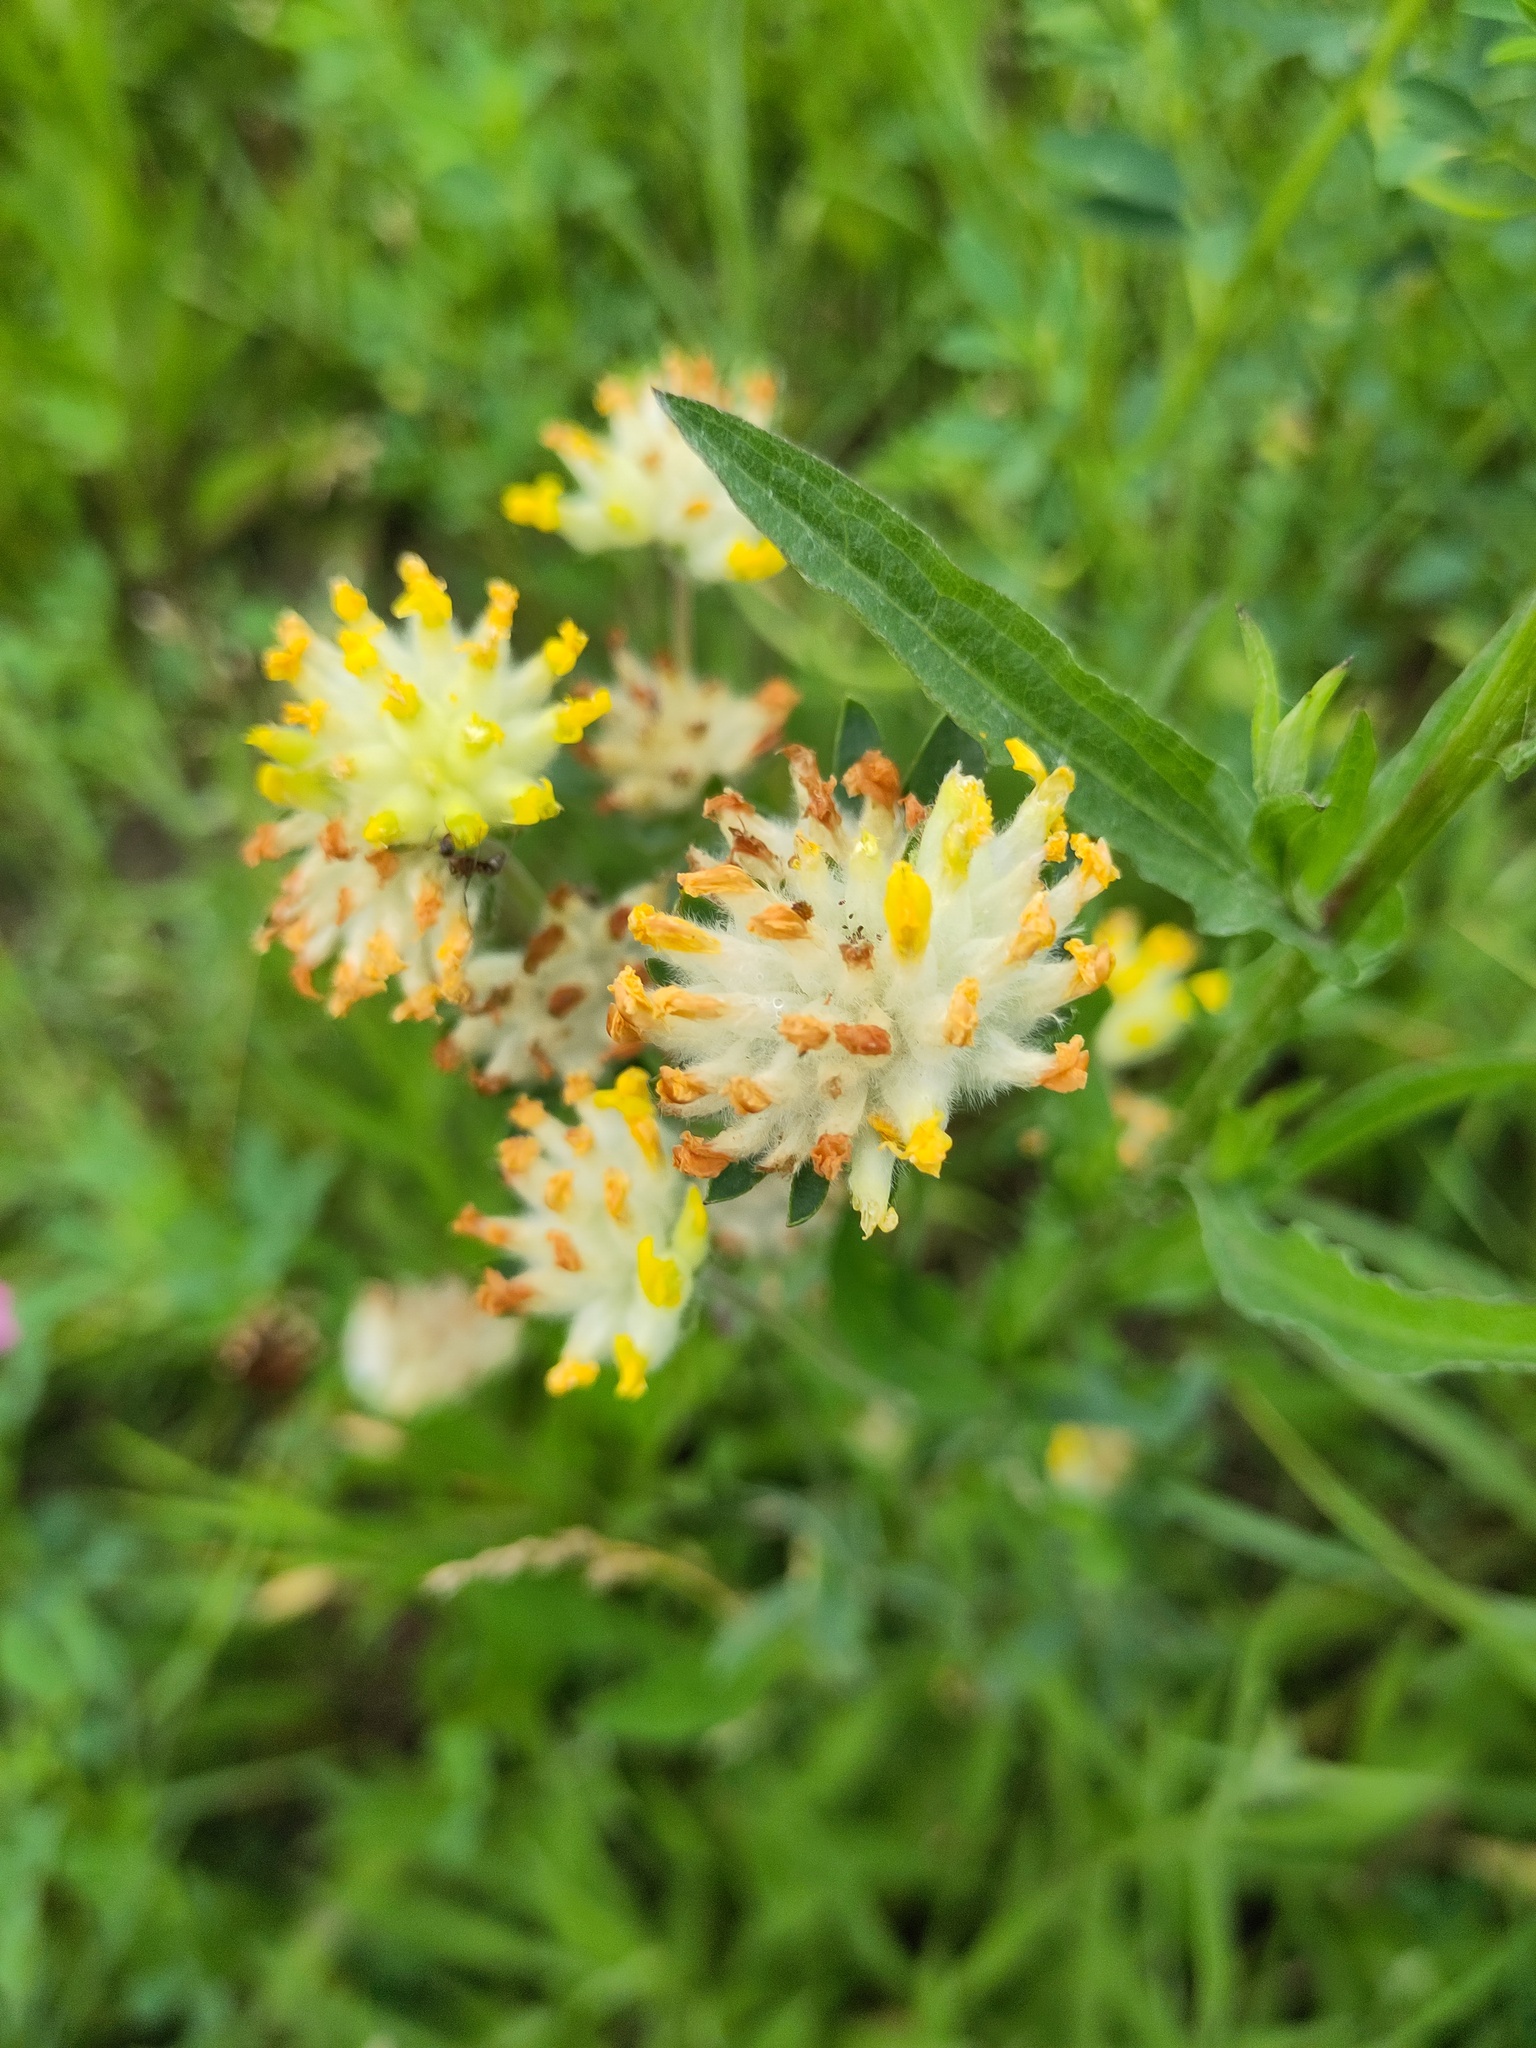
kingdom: Plantae
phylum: Tracheophyta
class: Magnoliopsida
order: Fabales
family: Fabaceae
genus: Anthyllis
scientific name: Anthyllis vulneraria
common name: Kidney vetch
